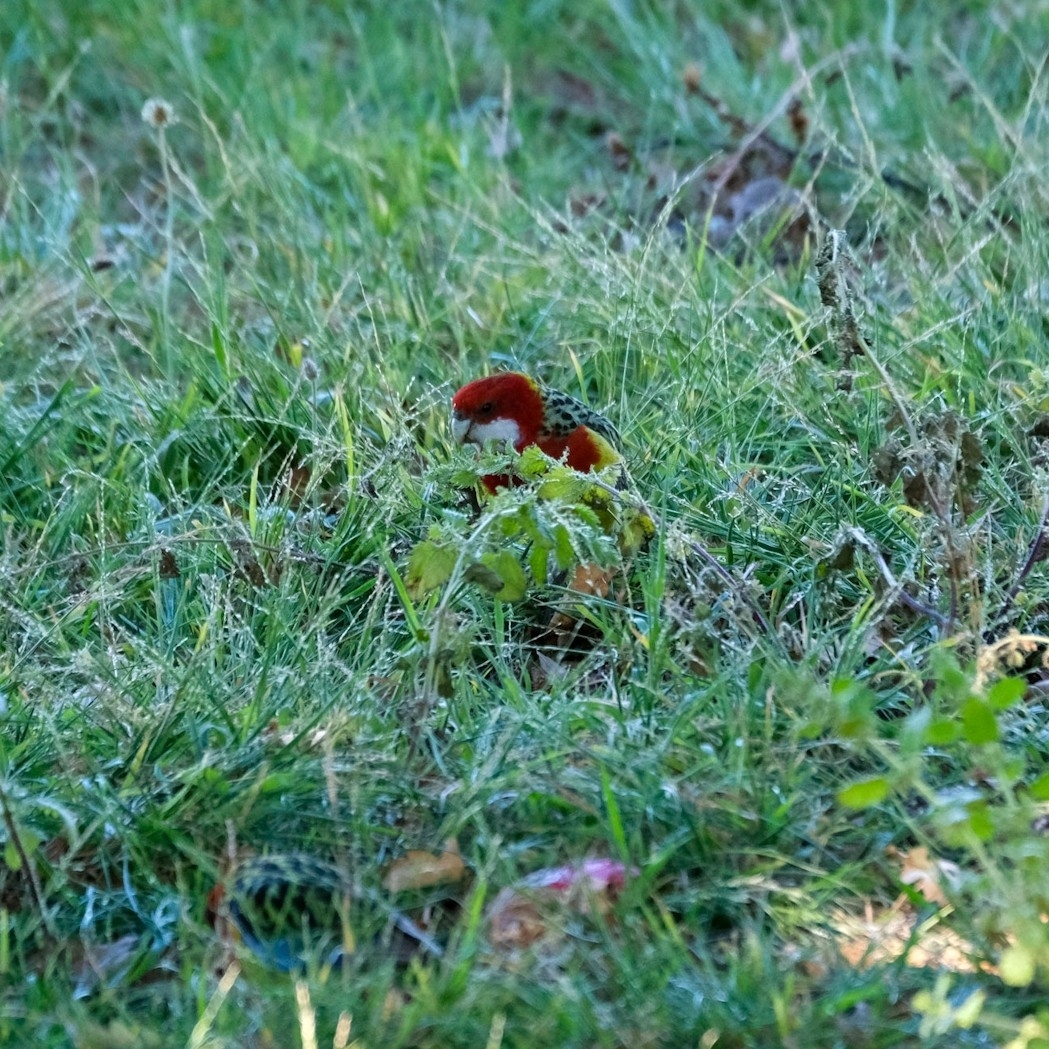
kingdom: Animalia
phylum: Chordata
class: Aves
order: Psittaciformes
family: Psittacidae
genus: Platycercus
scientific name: Platycercus eximius
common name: Eastern rosella
